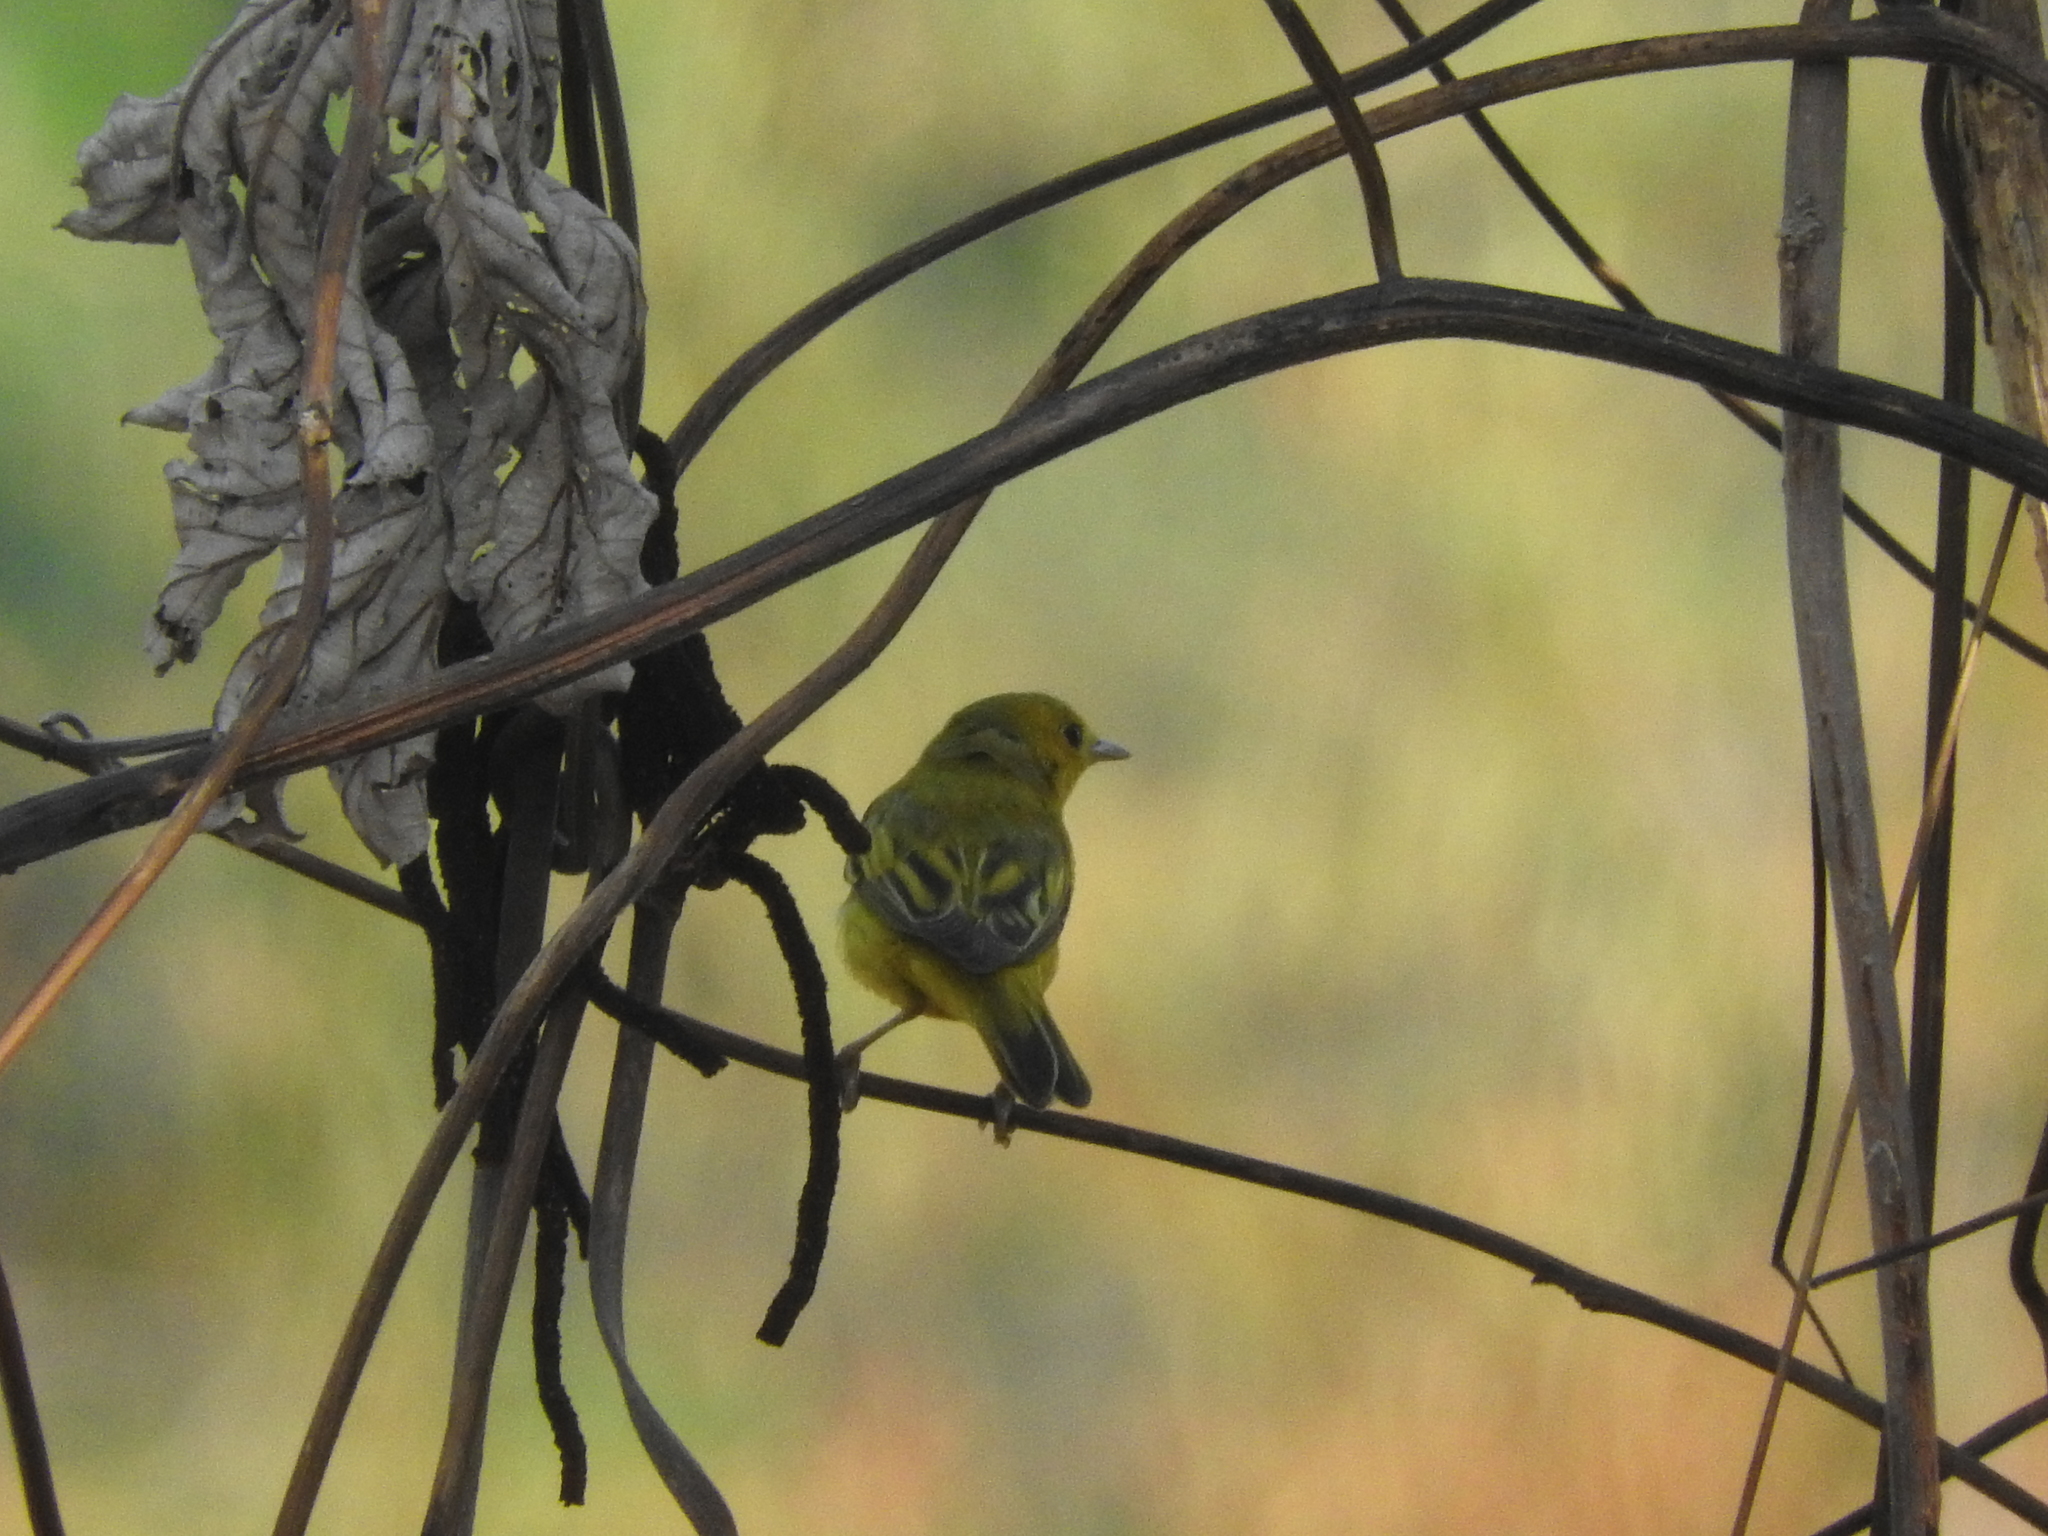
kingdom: Animalia
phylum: Chordata
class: Aves
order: Passeriformes
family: Parulidae
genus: Setophaga
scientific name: Setophaga petechia
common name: Yellow warbler
